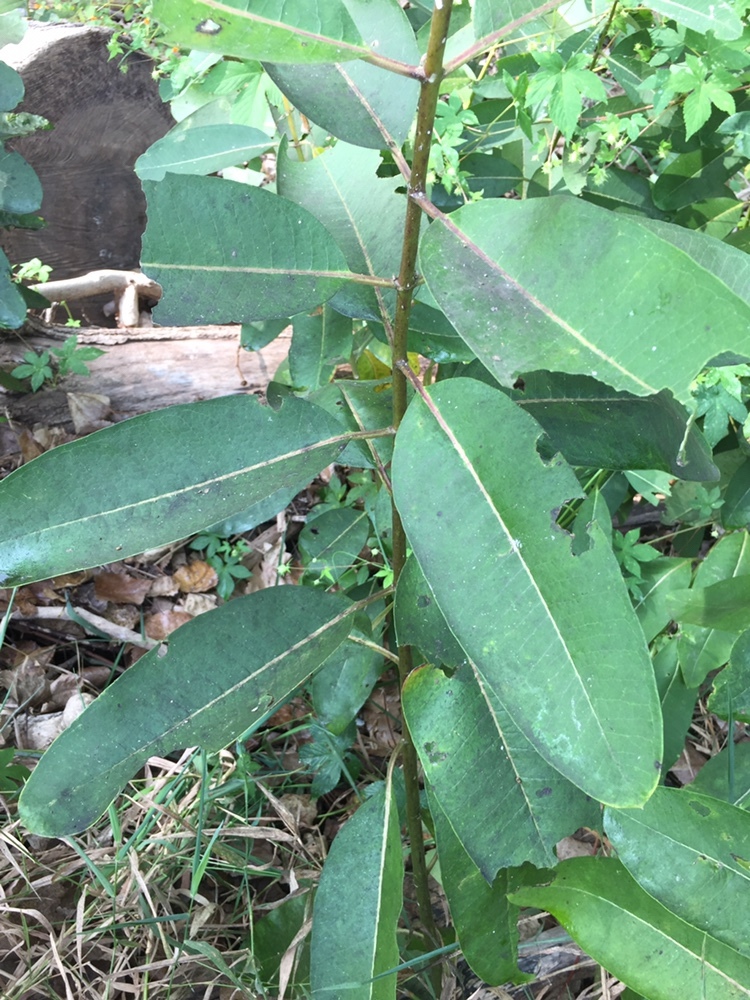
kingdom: Plantae
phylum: Tracheophyta
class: Magnoliopsida
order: Gentianales
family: Apocynaceae
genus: Asclepias
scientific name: Asclepias syriaca
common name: Common milkweed
